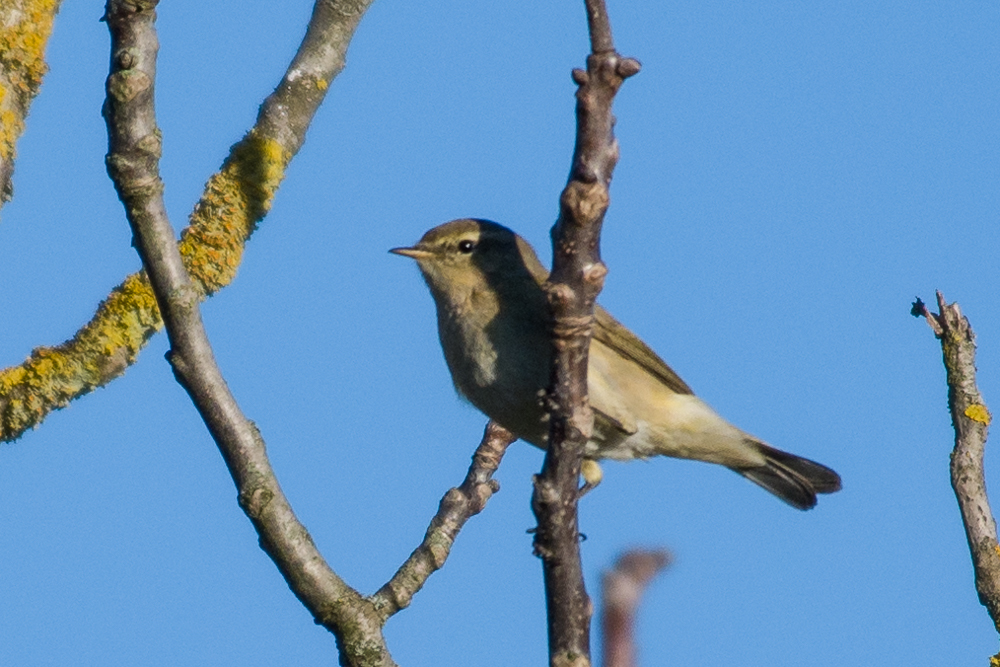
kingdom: Animalia
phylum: Chordata
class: Aves
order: Passeriformes
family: Phylloscopidae
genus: Phylloscopus
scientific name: Phylloscopus collybita
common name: Common chiffchaff
